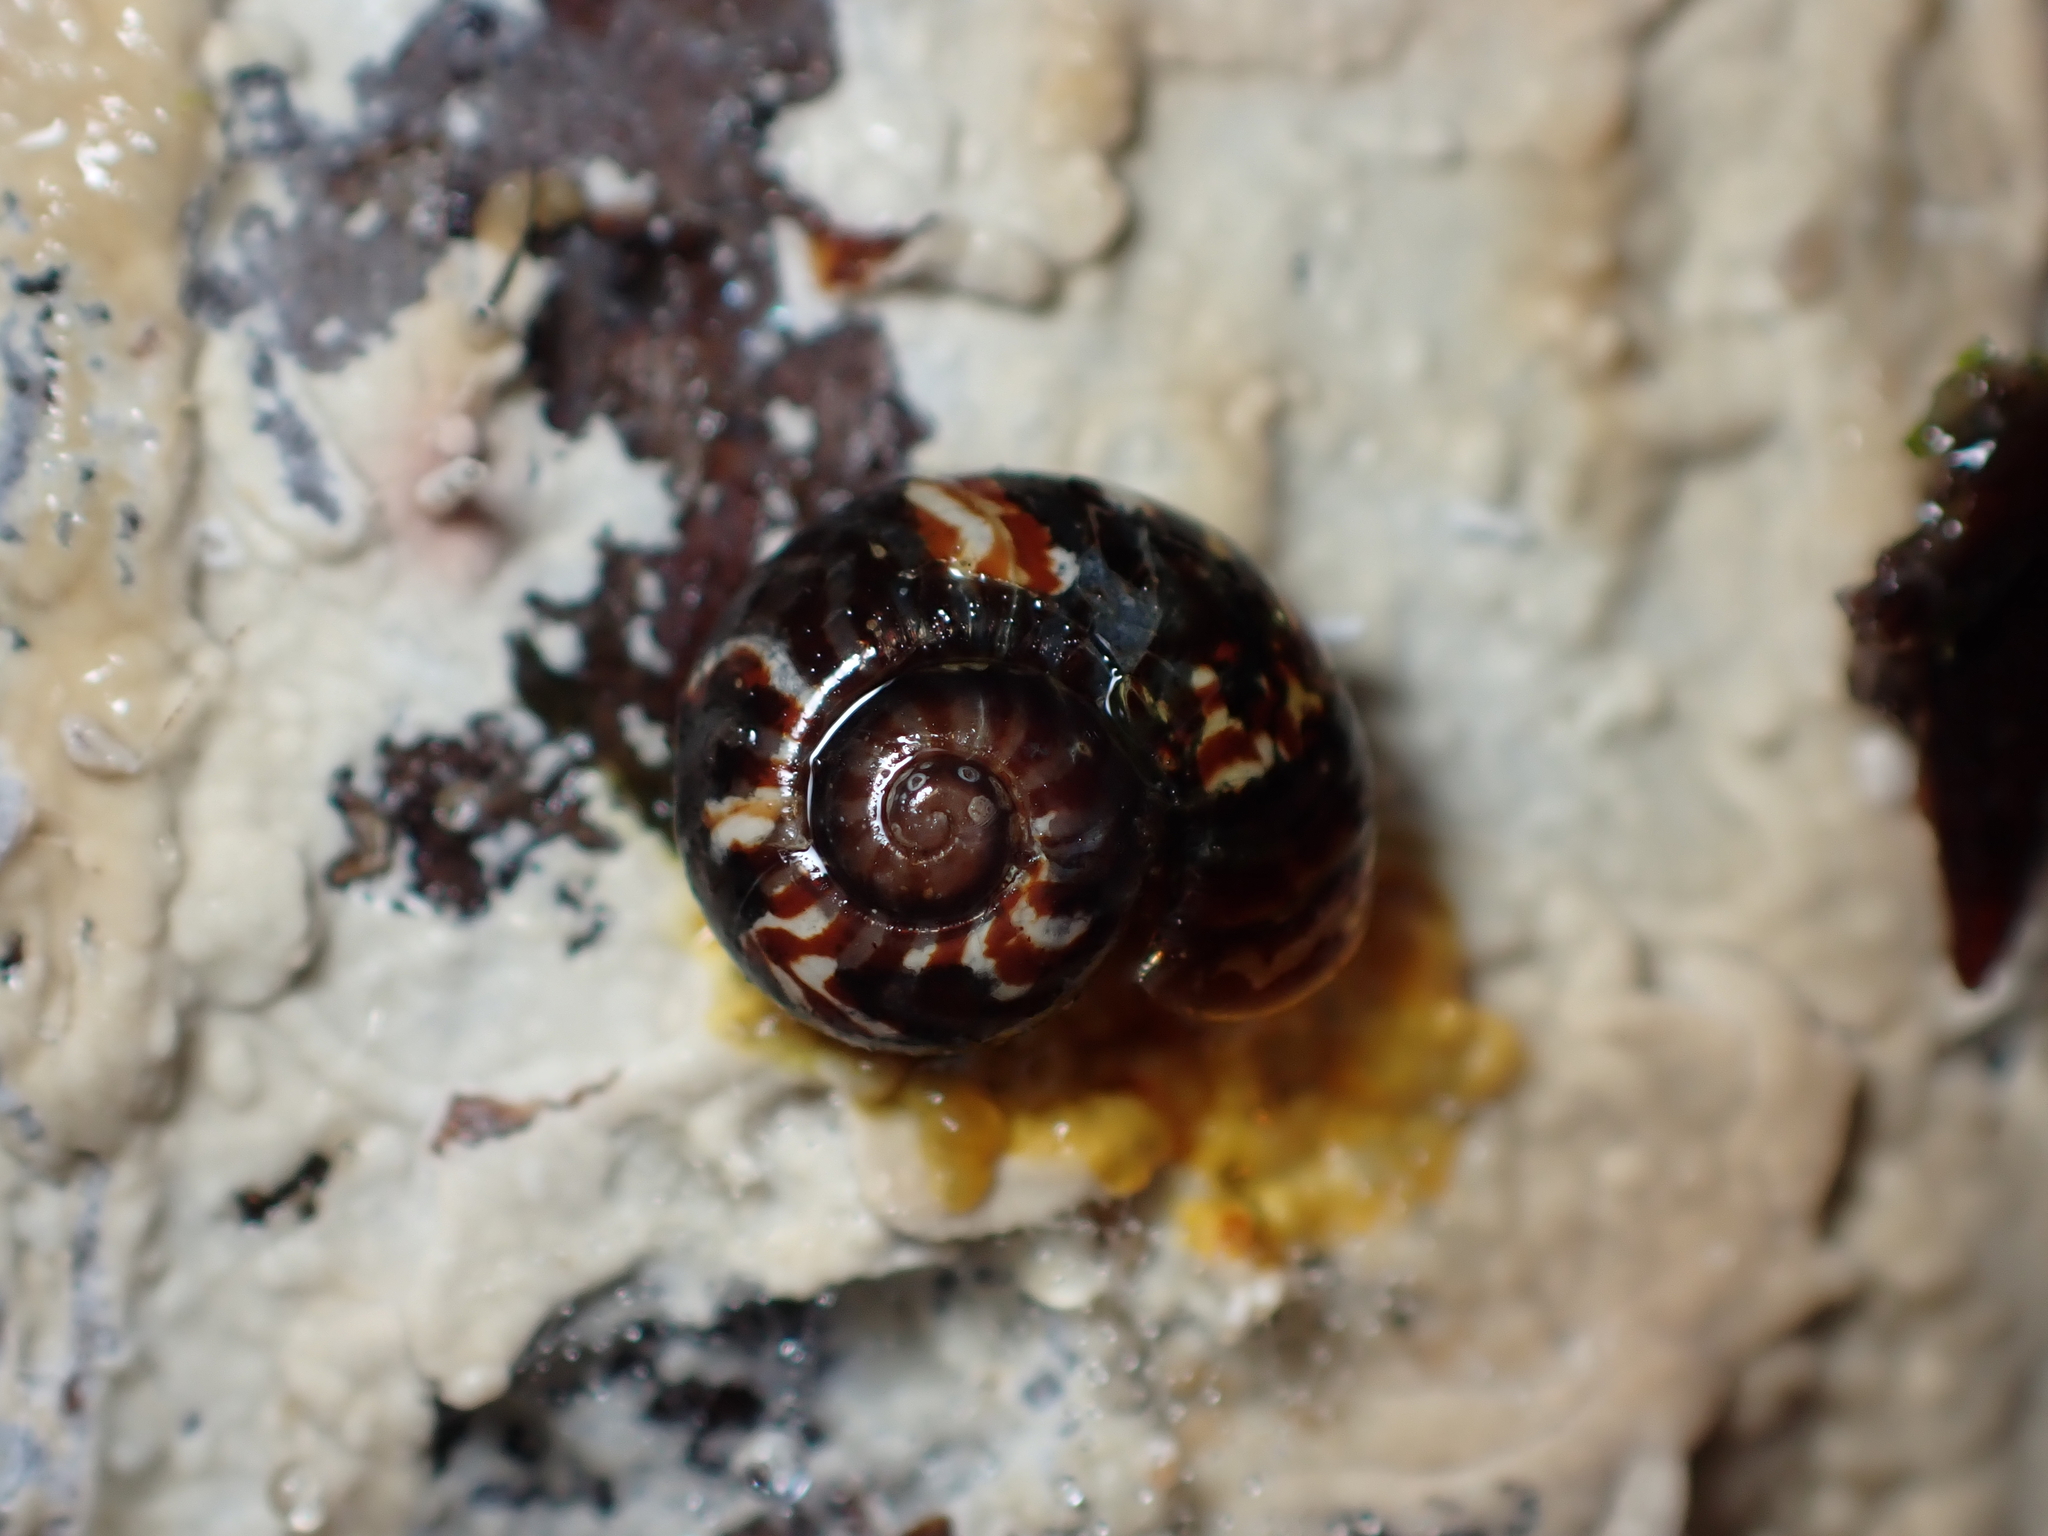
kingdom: Animalia
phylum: Mollusca
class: Gastropoda
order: Stylommatophora
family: Charopidae
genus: Flammulina
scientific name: Flammulina zebra
